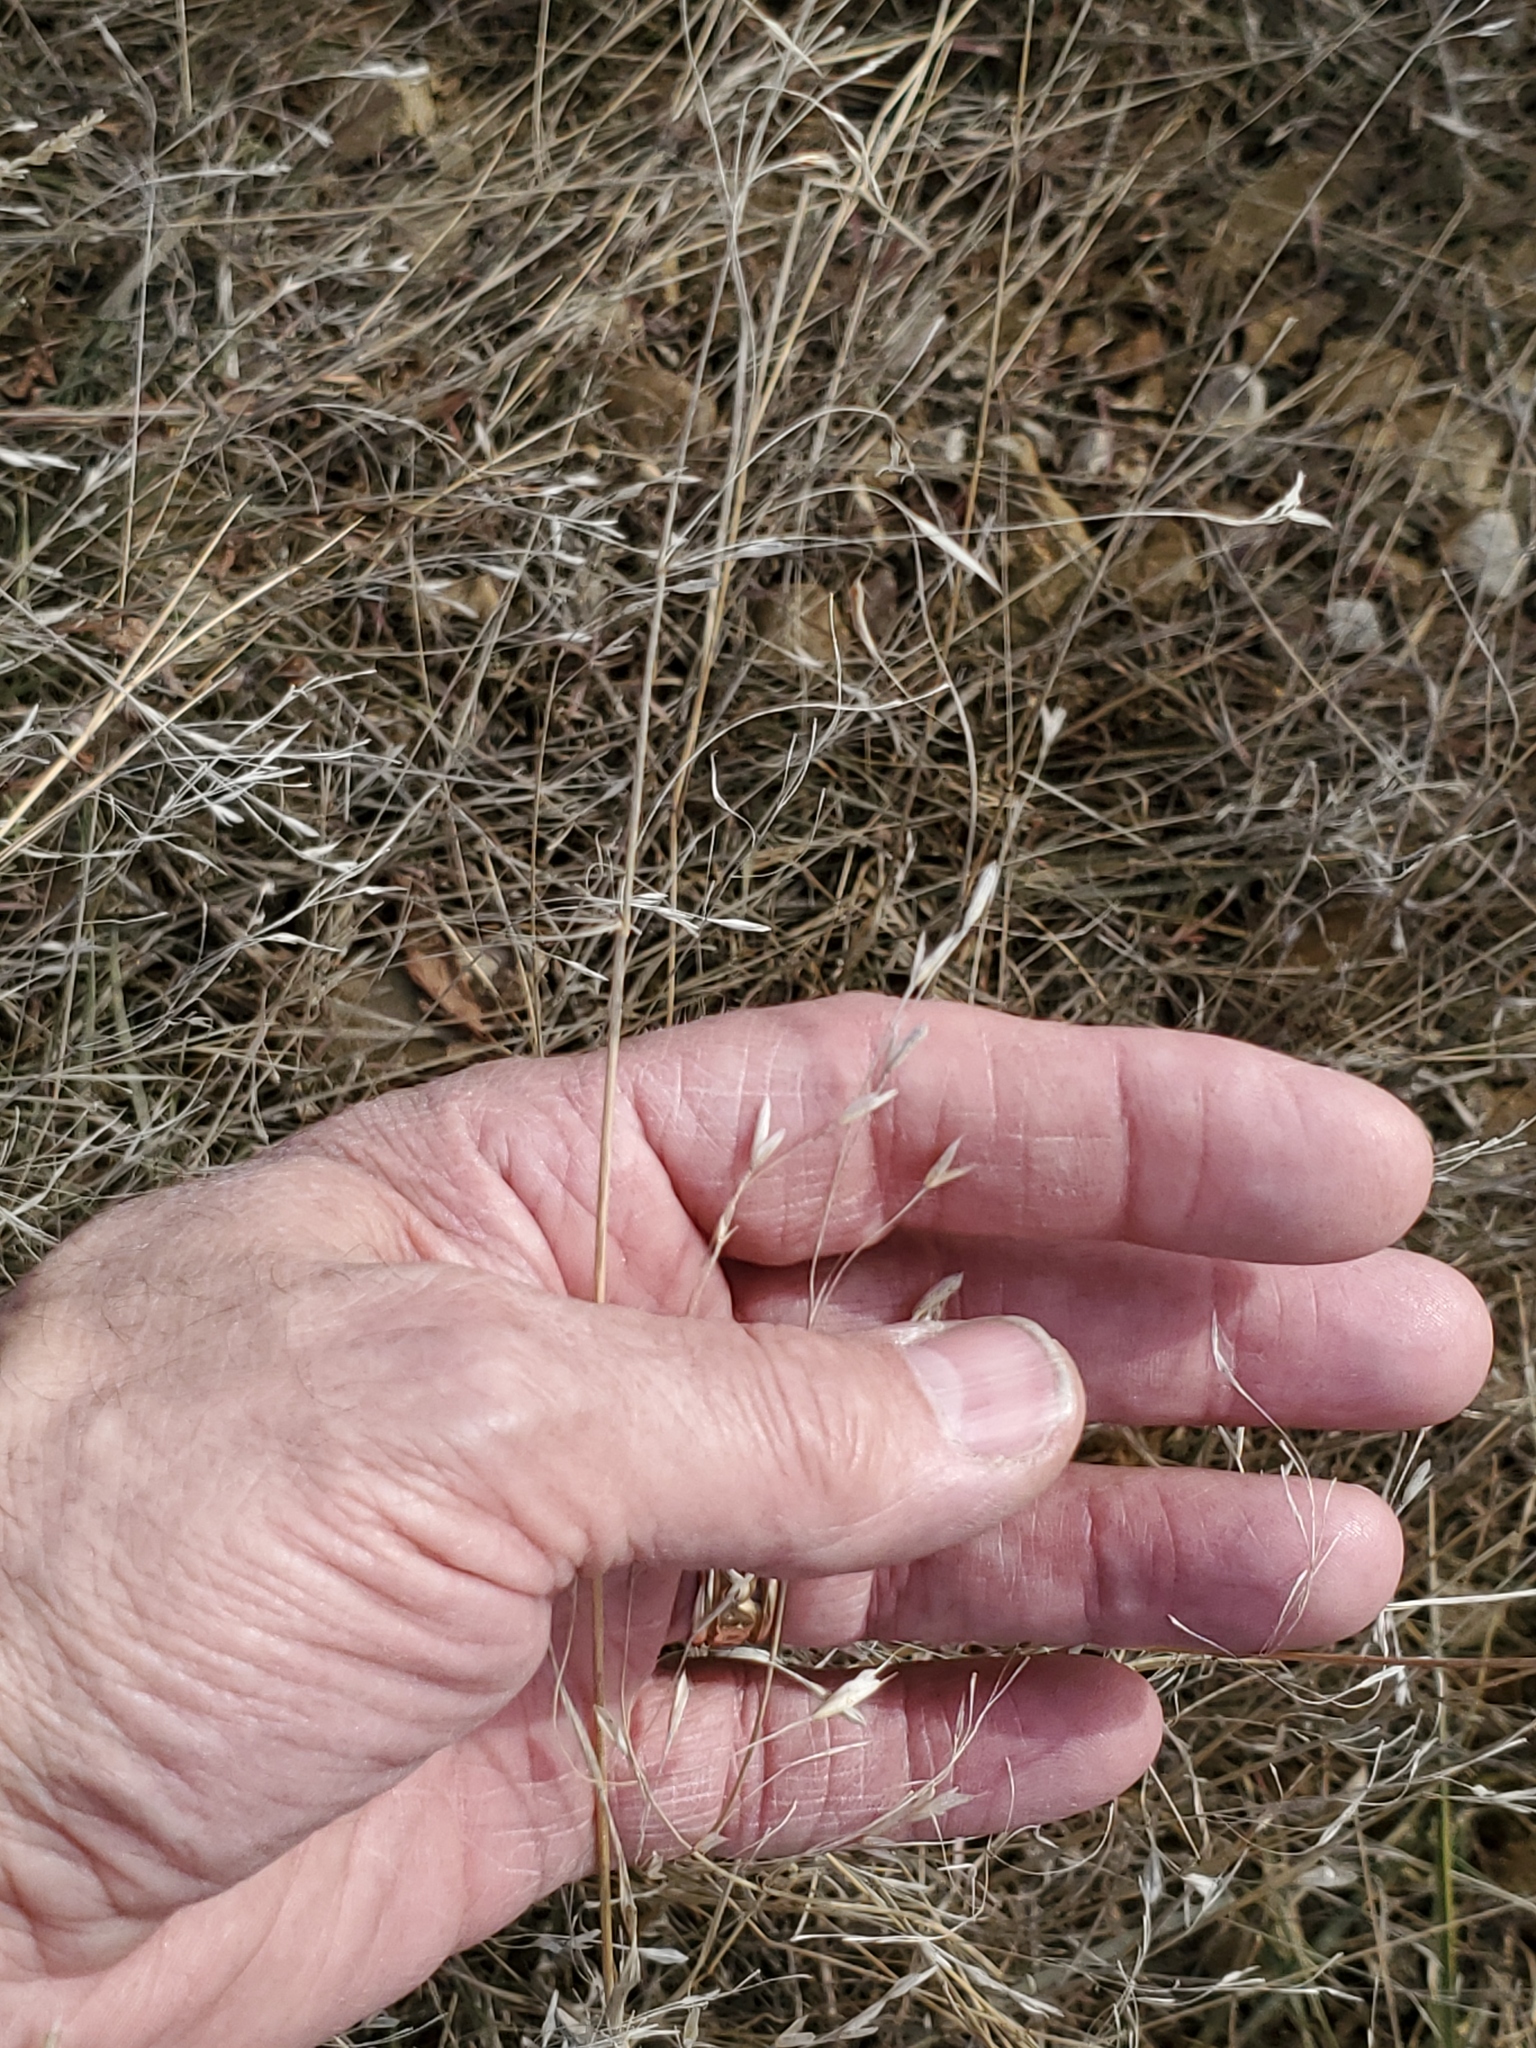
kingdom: Plantae
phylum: Tracheophyta
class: Liliopsida
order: Poales
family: Poaceae
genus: Bromus
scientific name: Bromus japonicus
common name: Japanese brome
